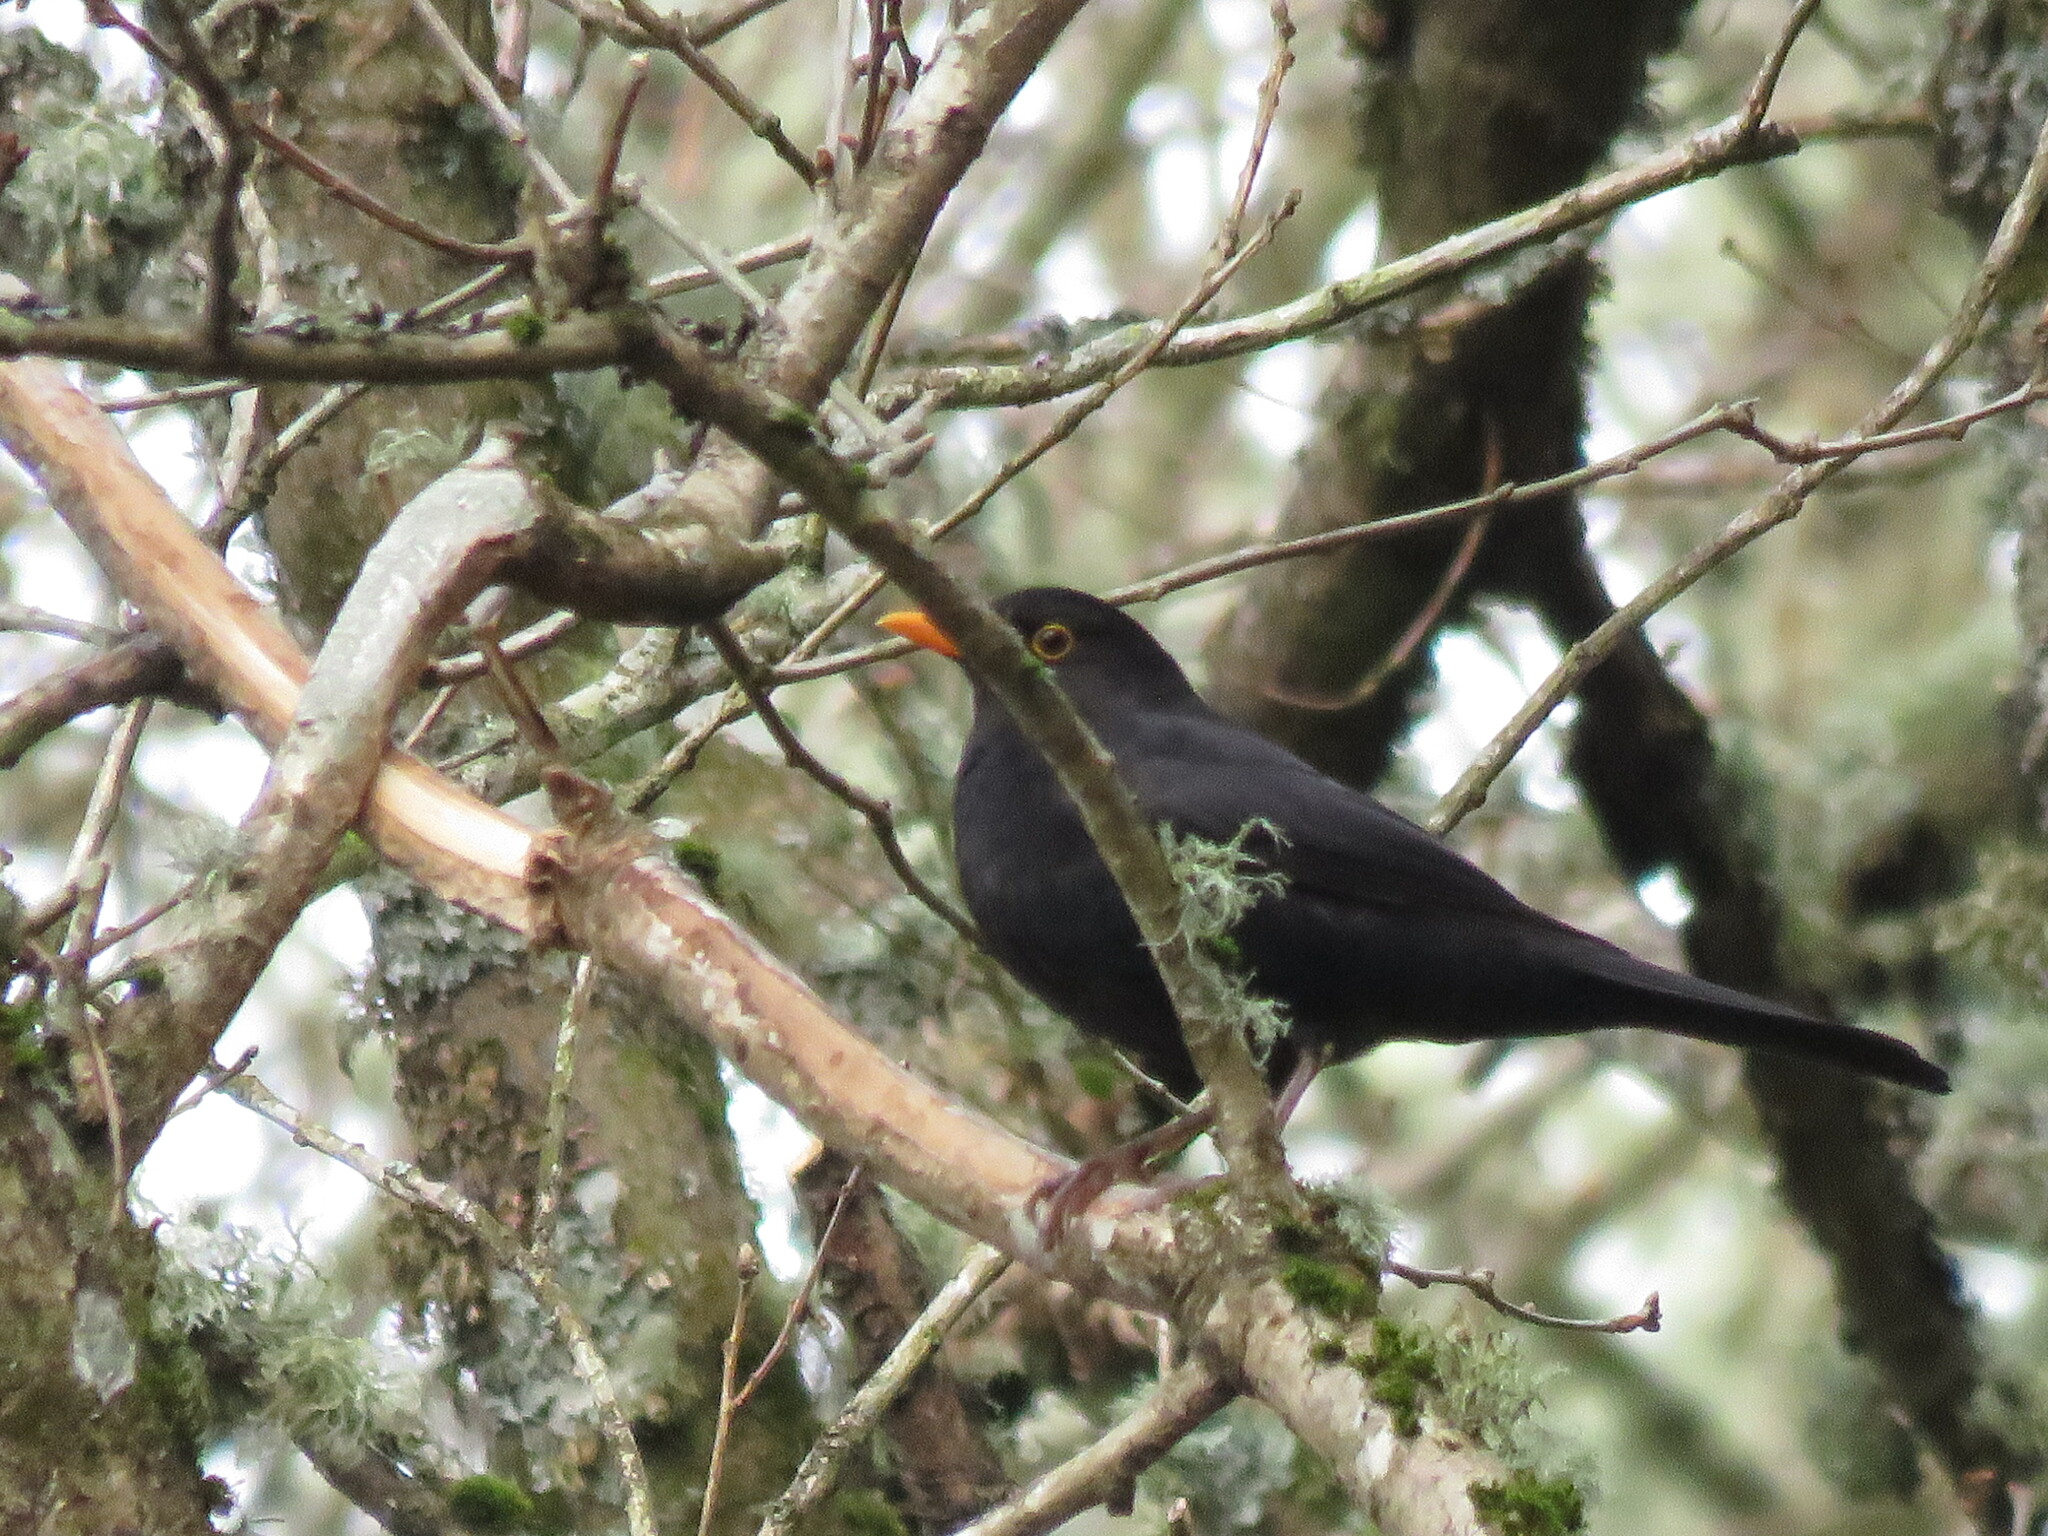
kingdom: Animalia
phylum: Chordata
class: Aves
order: Passeriformes
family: Turdidae
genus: Turdus
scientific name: Turdus merula
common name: Common blackbird
